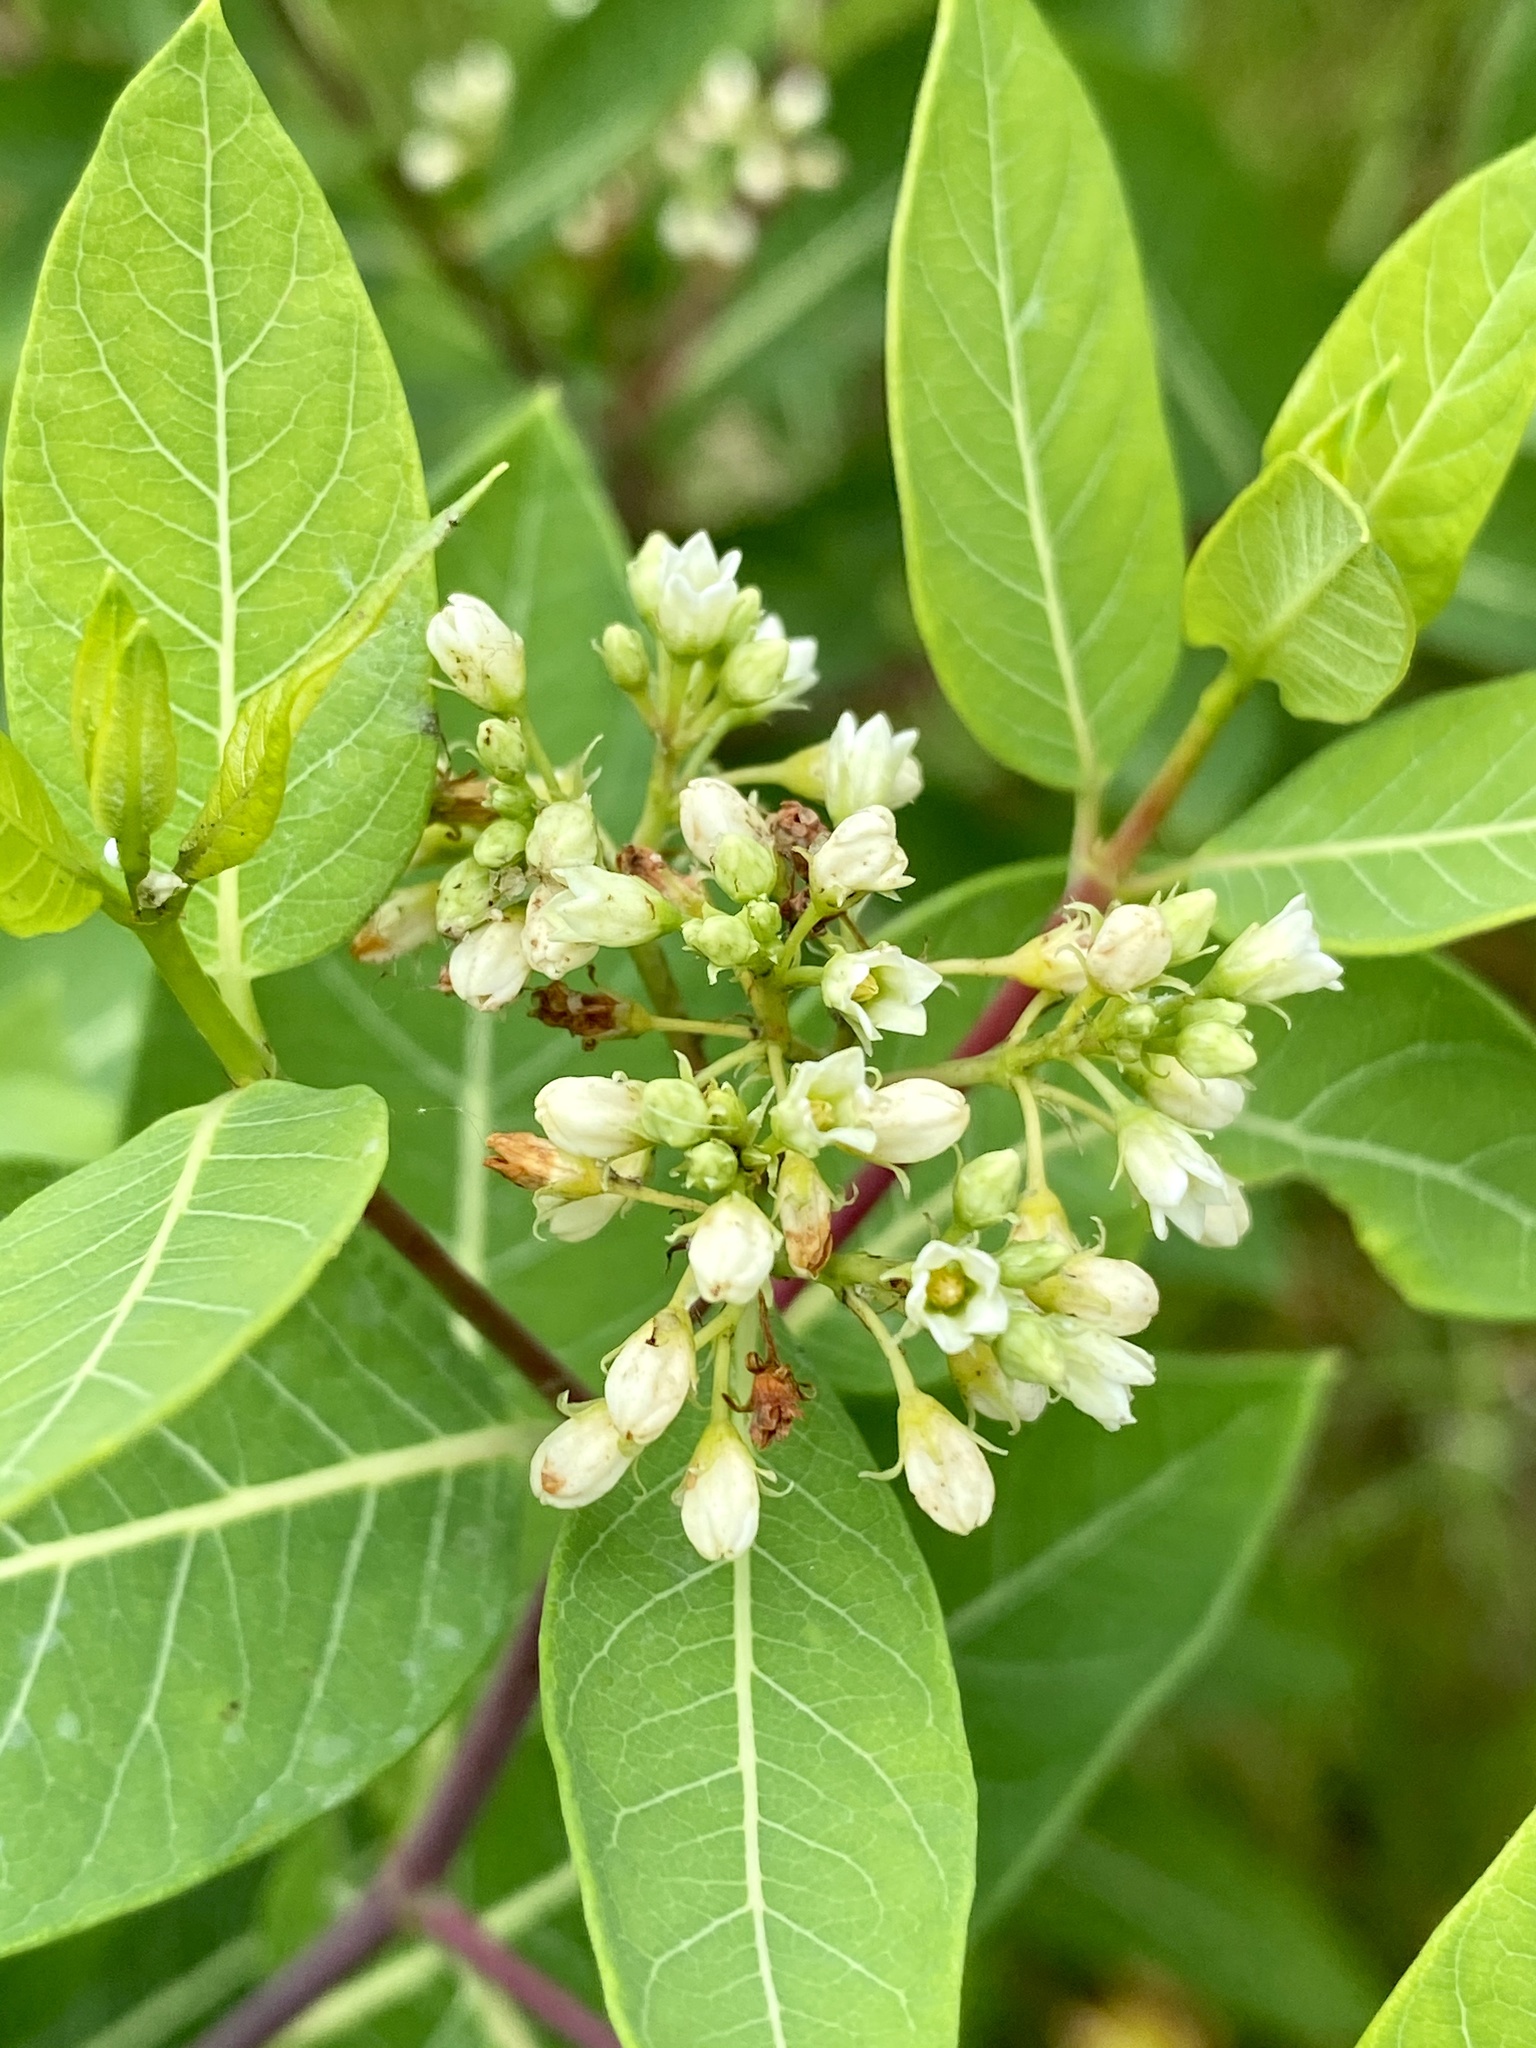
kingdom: Plantae
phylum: Tracheophyta
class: Magnoliopsida
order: Gentianales
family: Apocynaceae
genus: Apocynum
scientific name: Apocynum cannabinum
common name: Hemp dogbane
